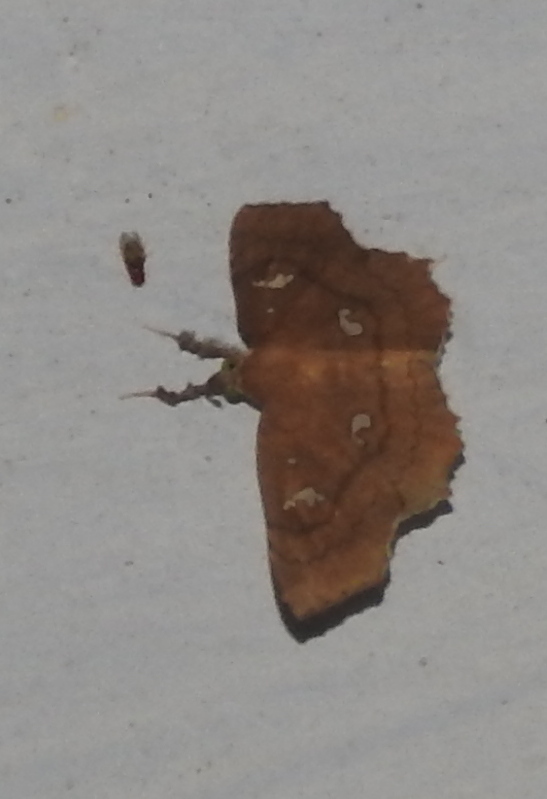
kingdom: Animalia
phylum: Arthropoda
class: Insecta
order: Lepidoptera
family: Erebidae
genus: Egnasia
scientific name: Egnasia ephyrodalis
